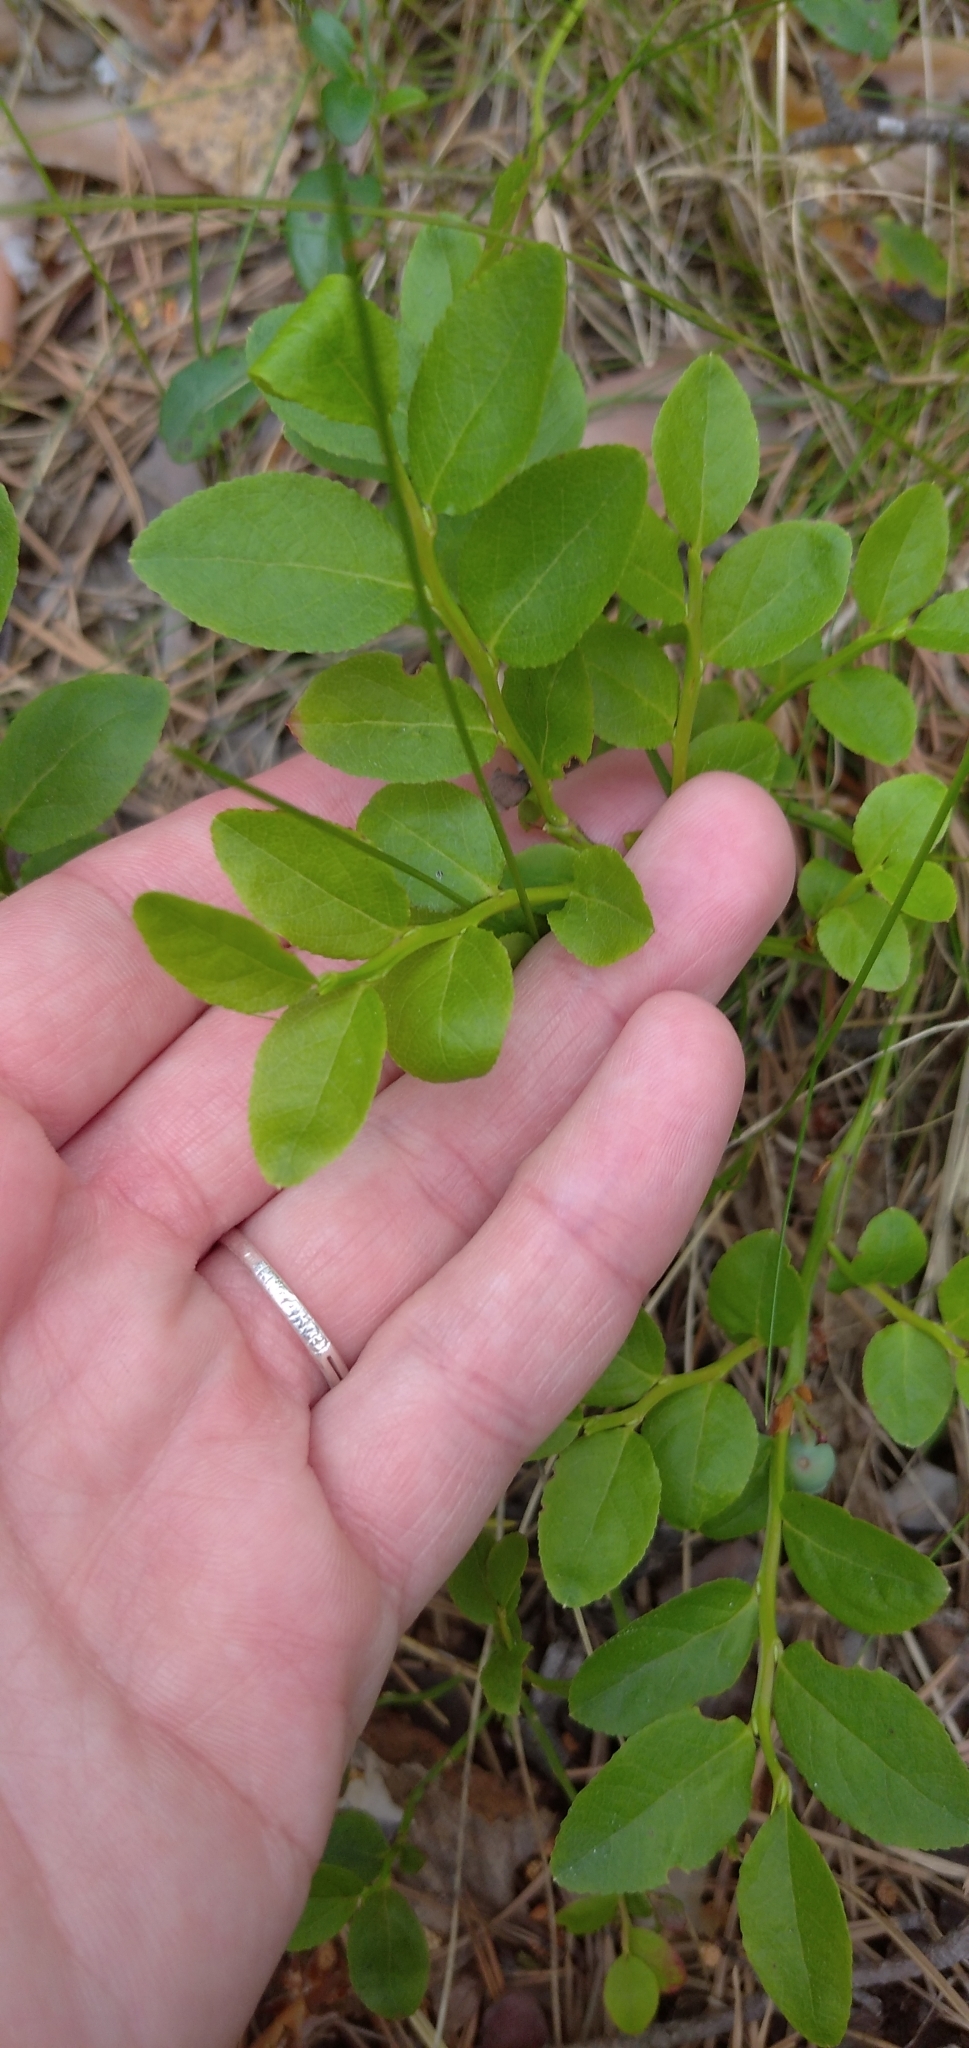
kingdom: Plantae
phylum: Tracheophyta
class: Magnoliopsida
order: Ericales
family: Ericaceae
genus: Vaccinium
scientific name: Vaccinium myrtillus
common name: Bilberry
